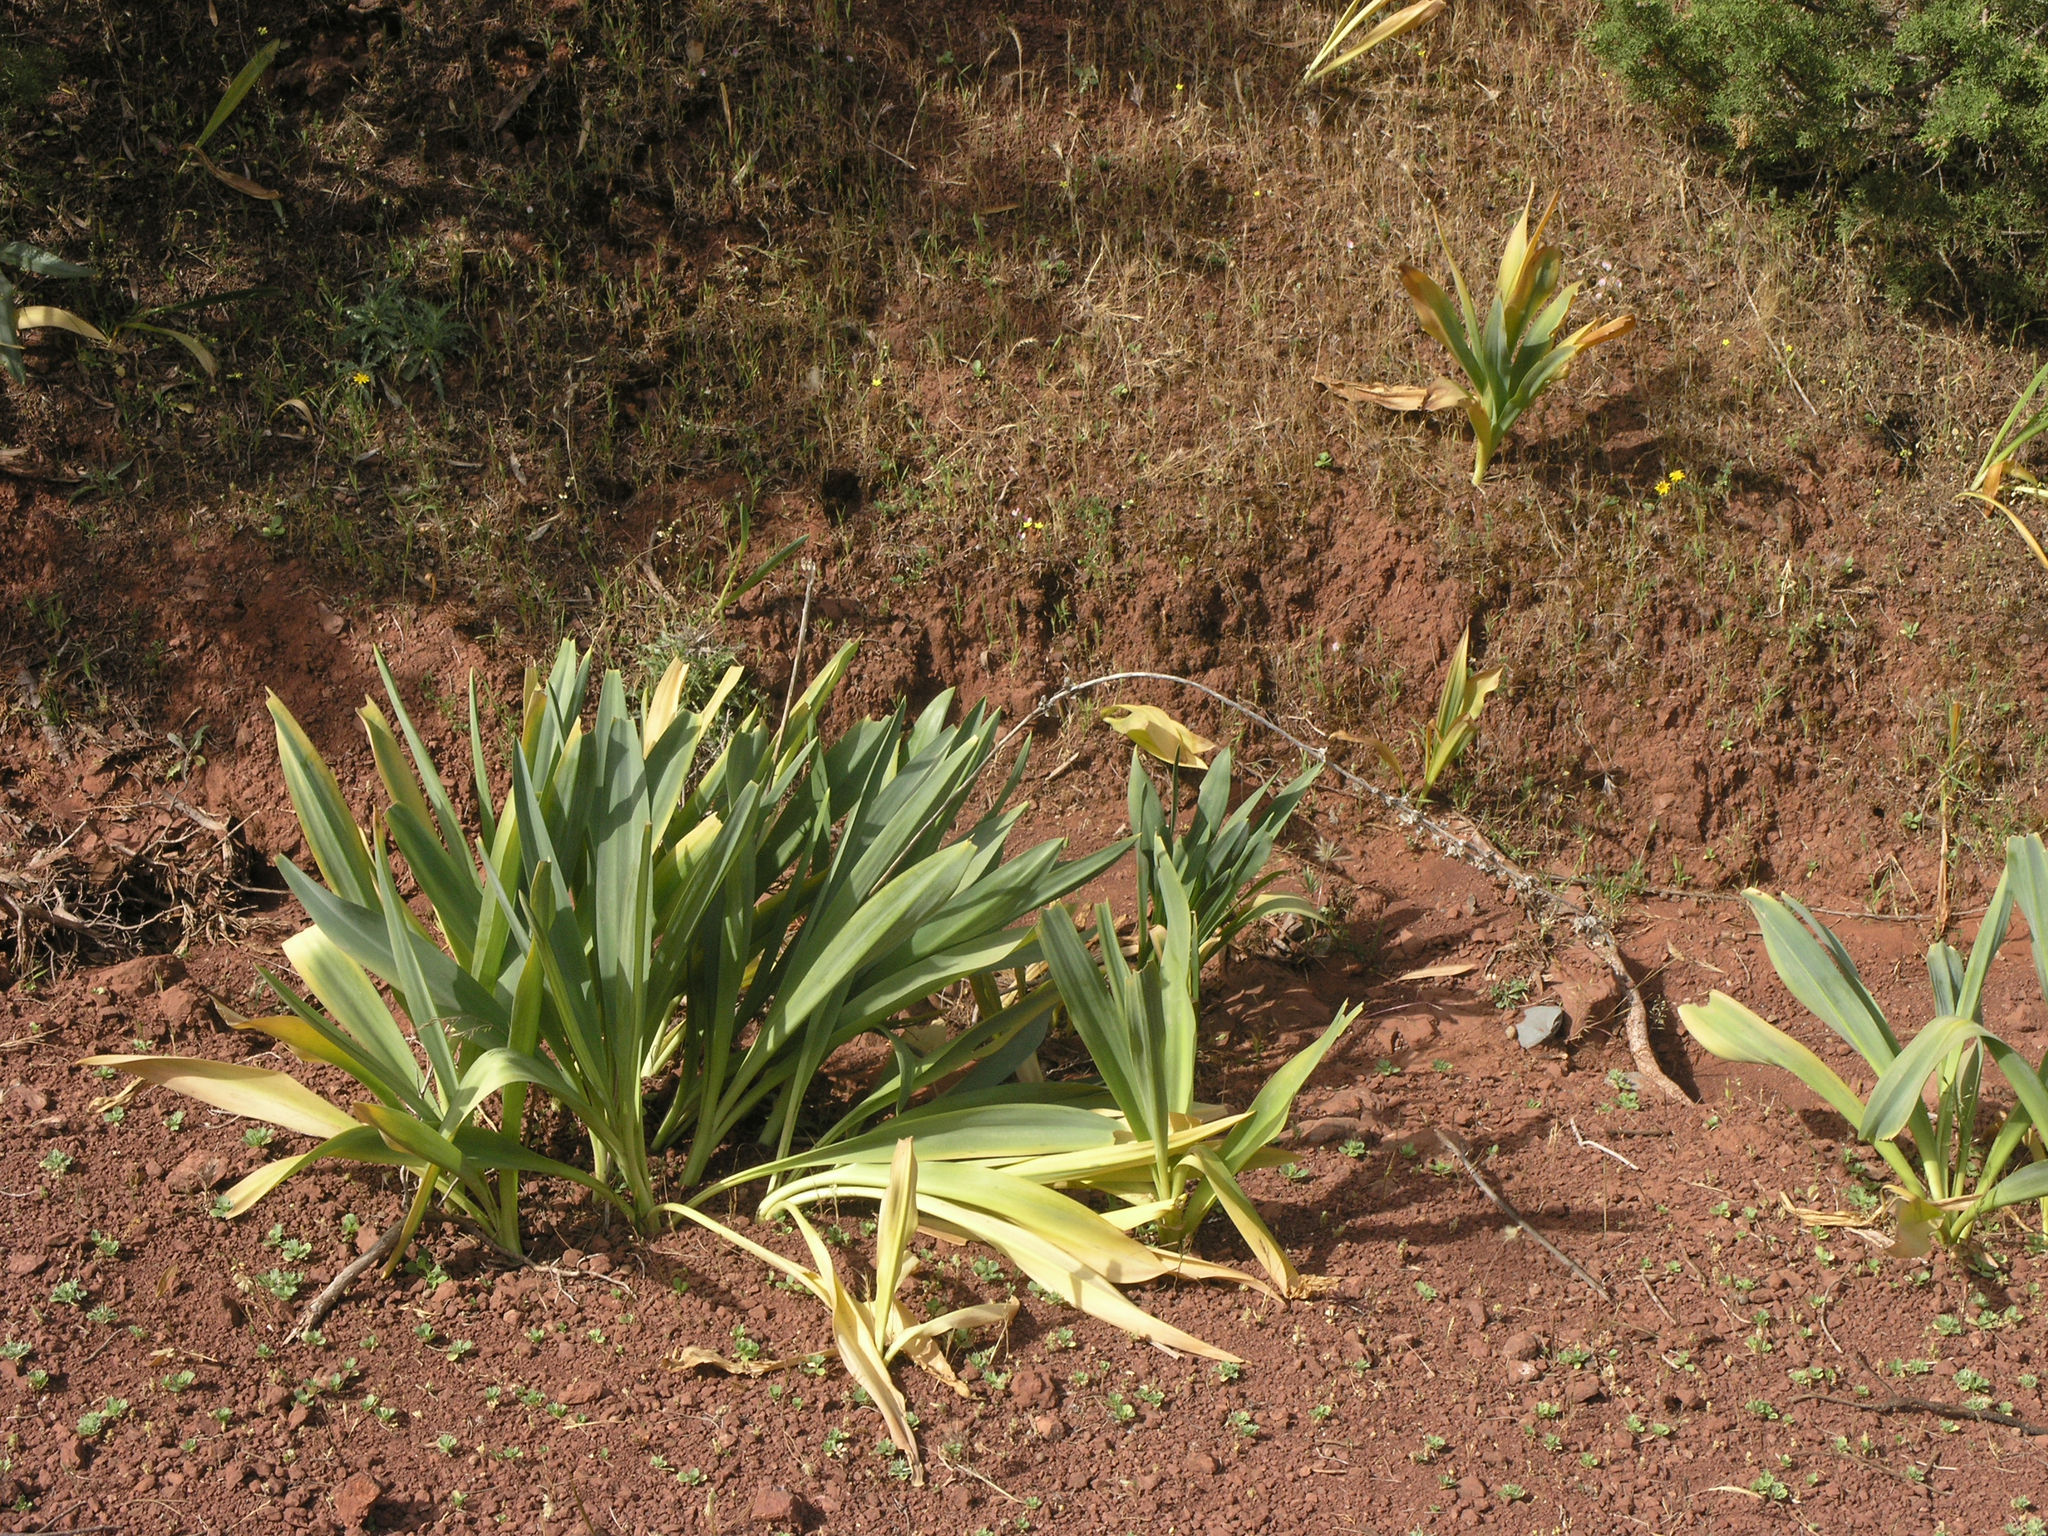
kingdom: Plantae
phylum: Tracheophyta
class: Liliopsida
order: Asparagales
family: Asparagaceae
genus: Drimia
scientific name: Drimia maura
